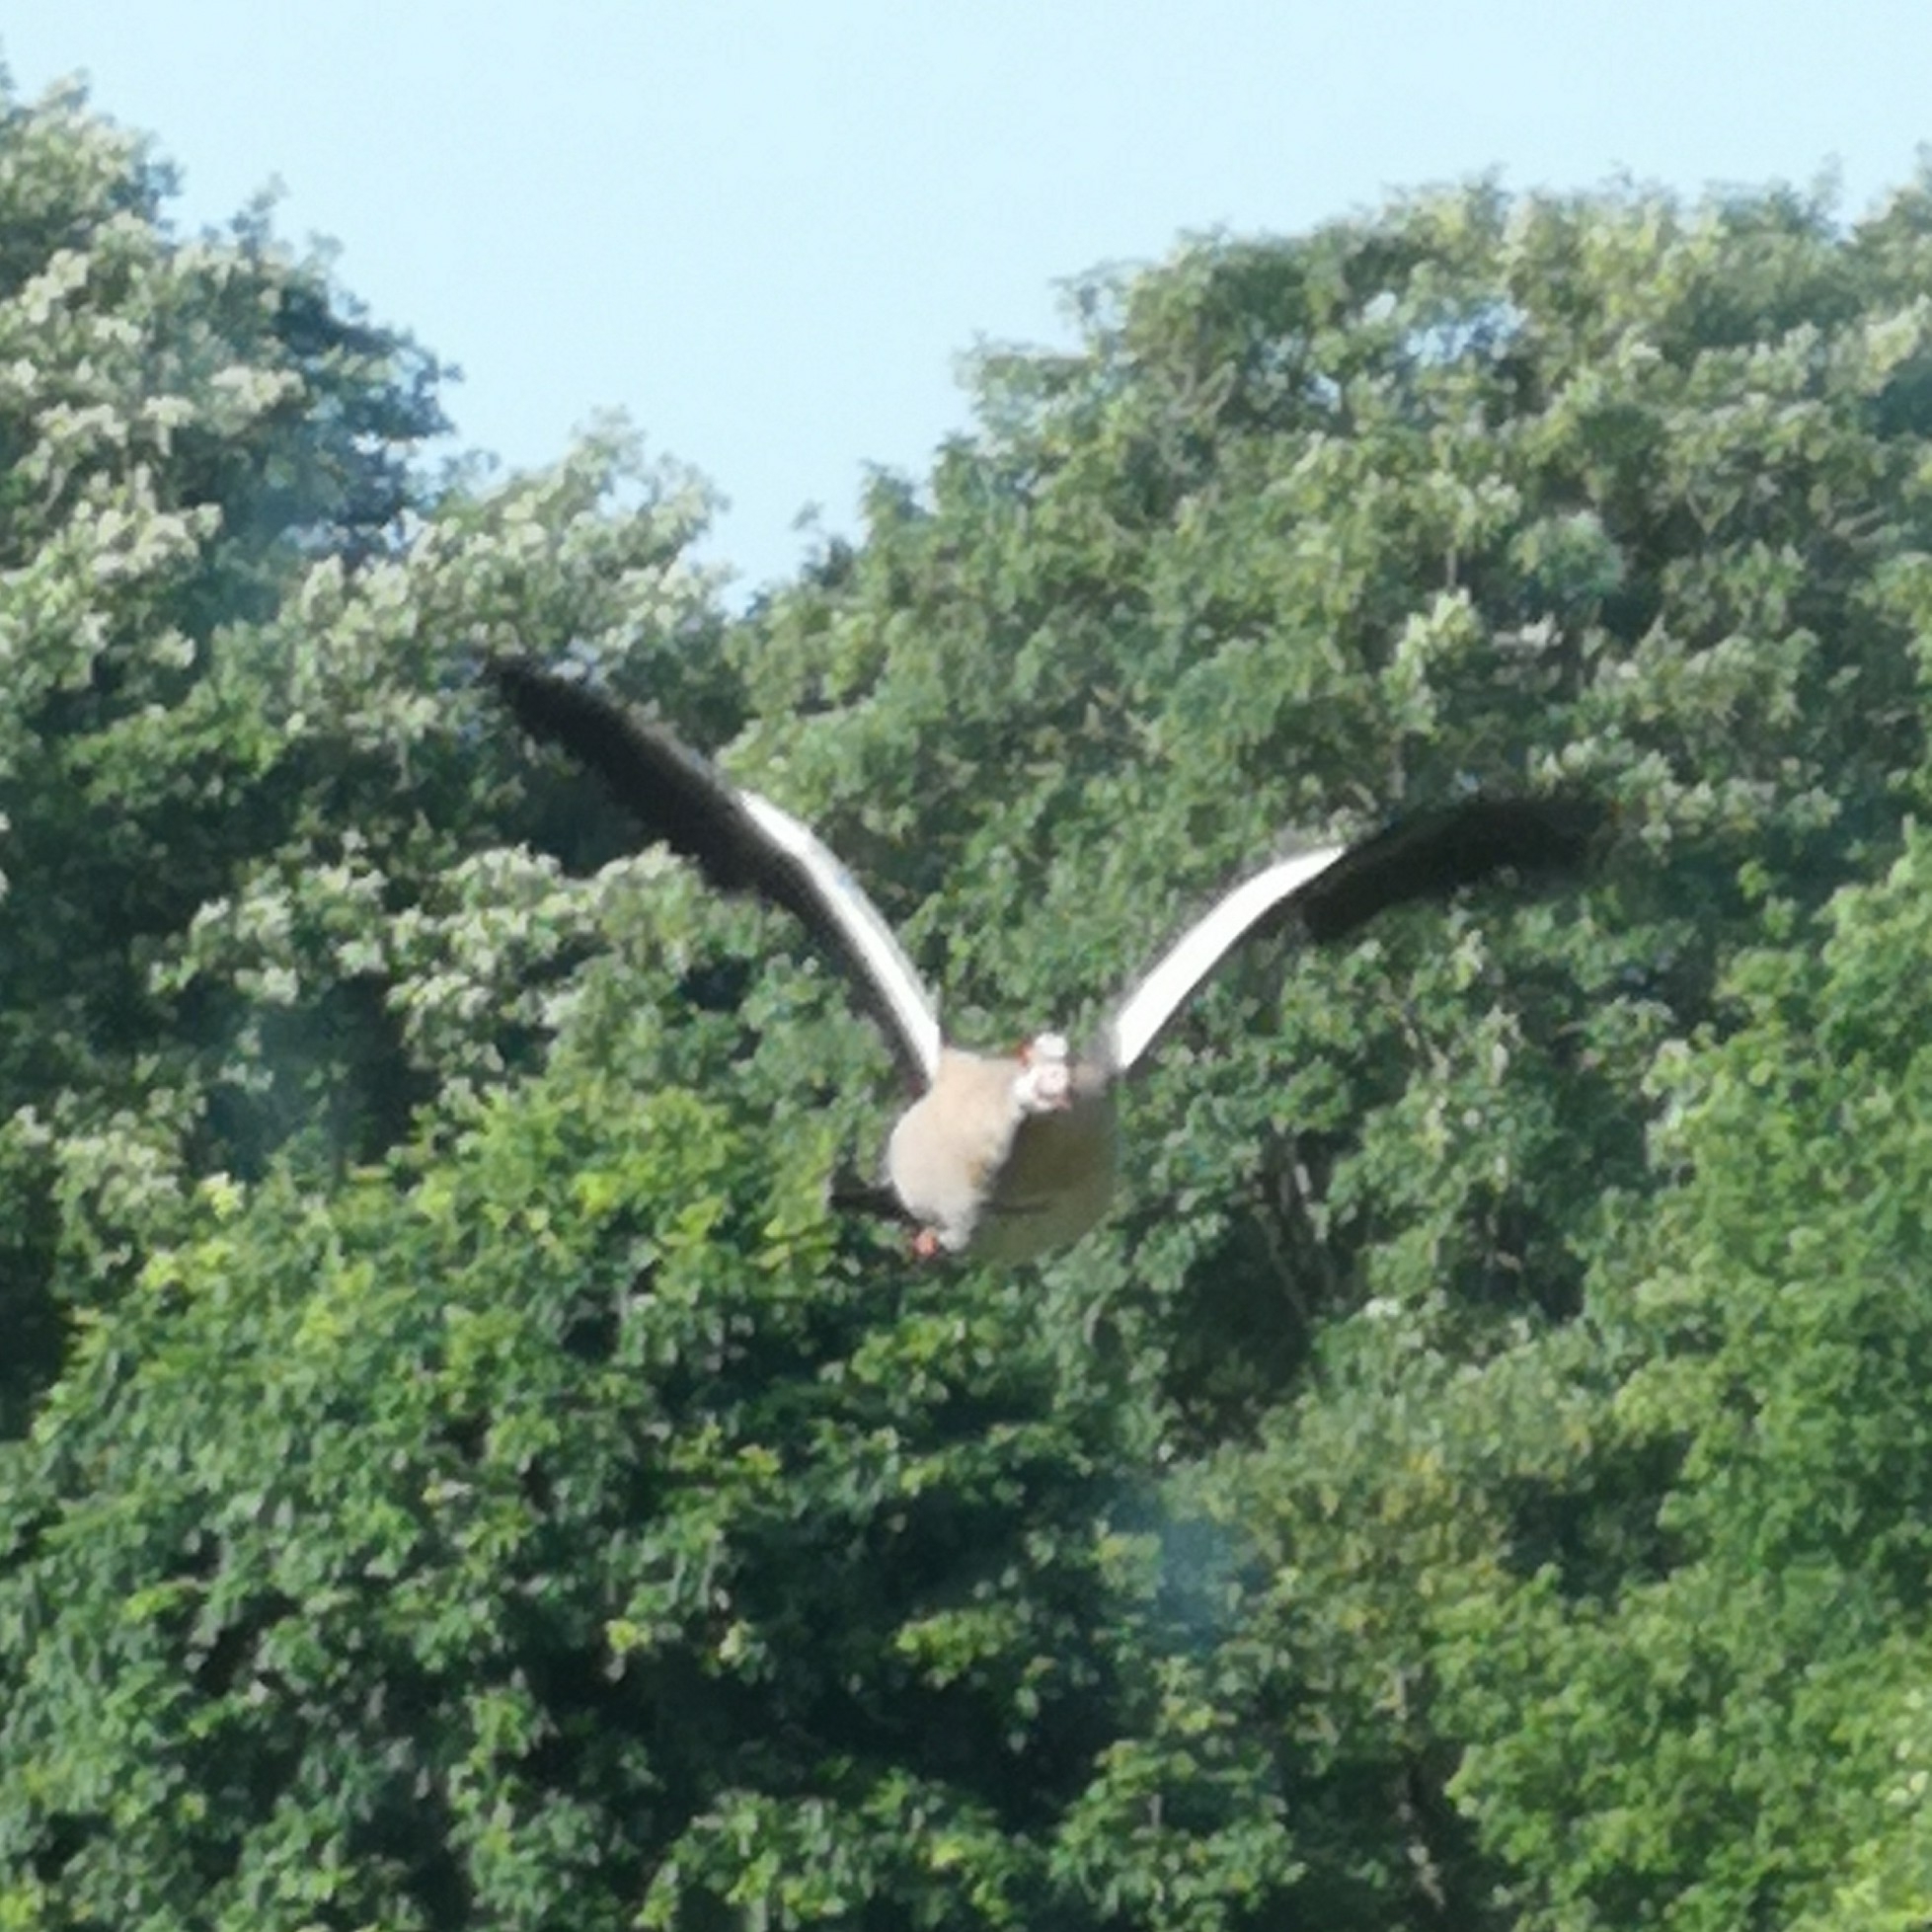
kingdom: Animalia
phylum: Chordata
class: Aves
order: Anseriformes
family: Anatidae
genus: Alopochen
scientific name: Alopochen aegyptiaca
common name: Egyptian goose
